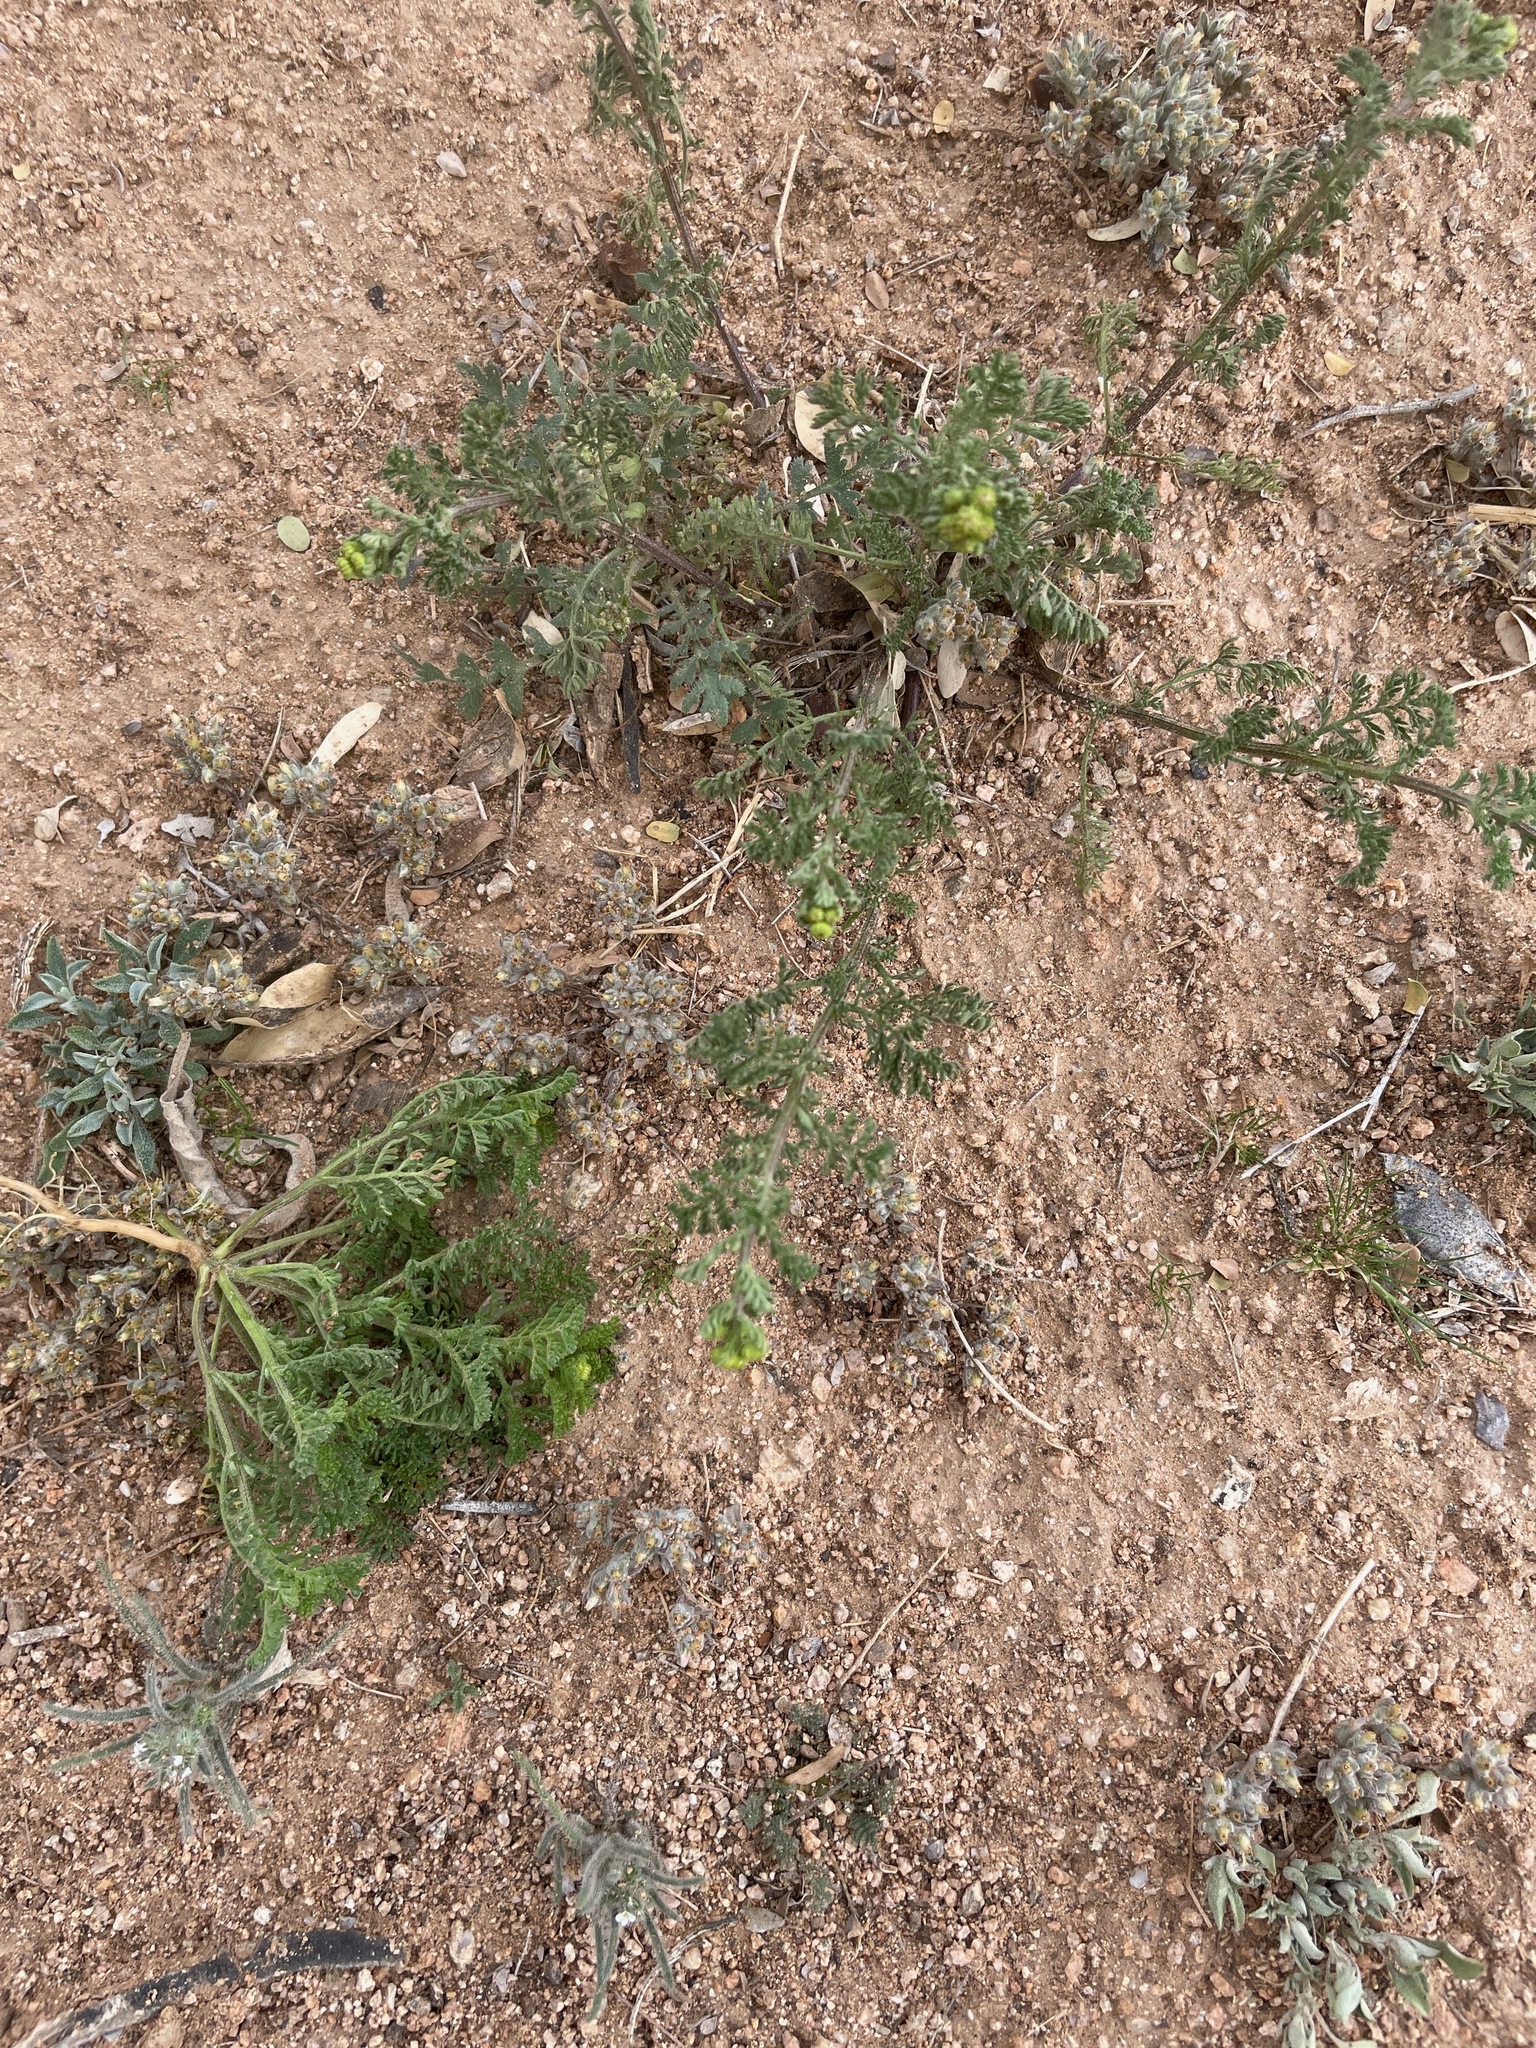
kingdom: Plantae
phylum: Tracheophyta
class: Magnoliopsida
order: Asterales
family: Asteraceae
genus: Oncosiphon
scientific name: Oncosiphon pilulifer
